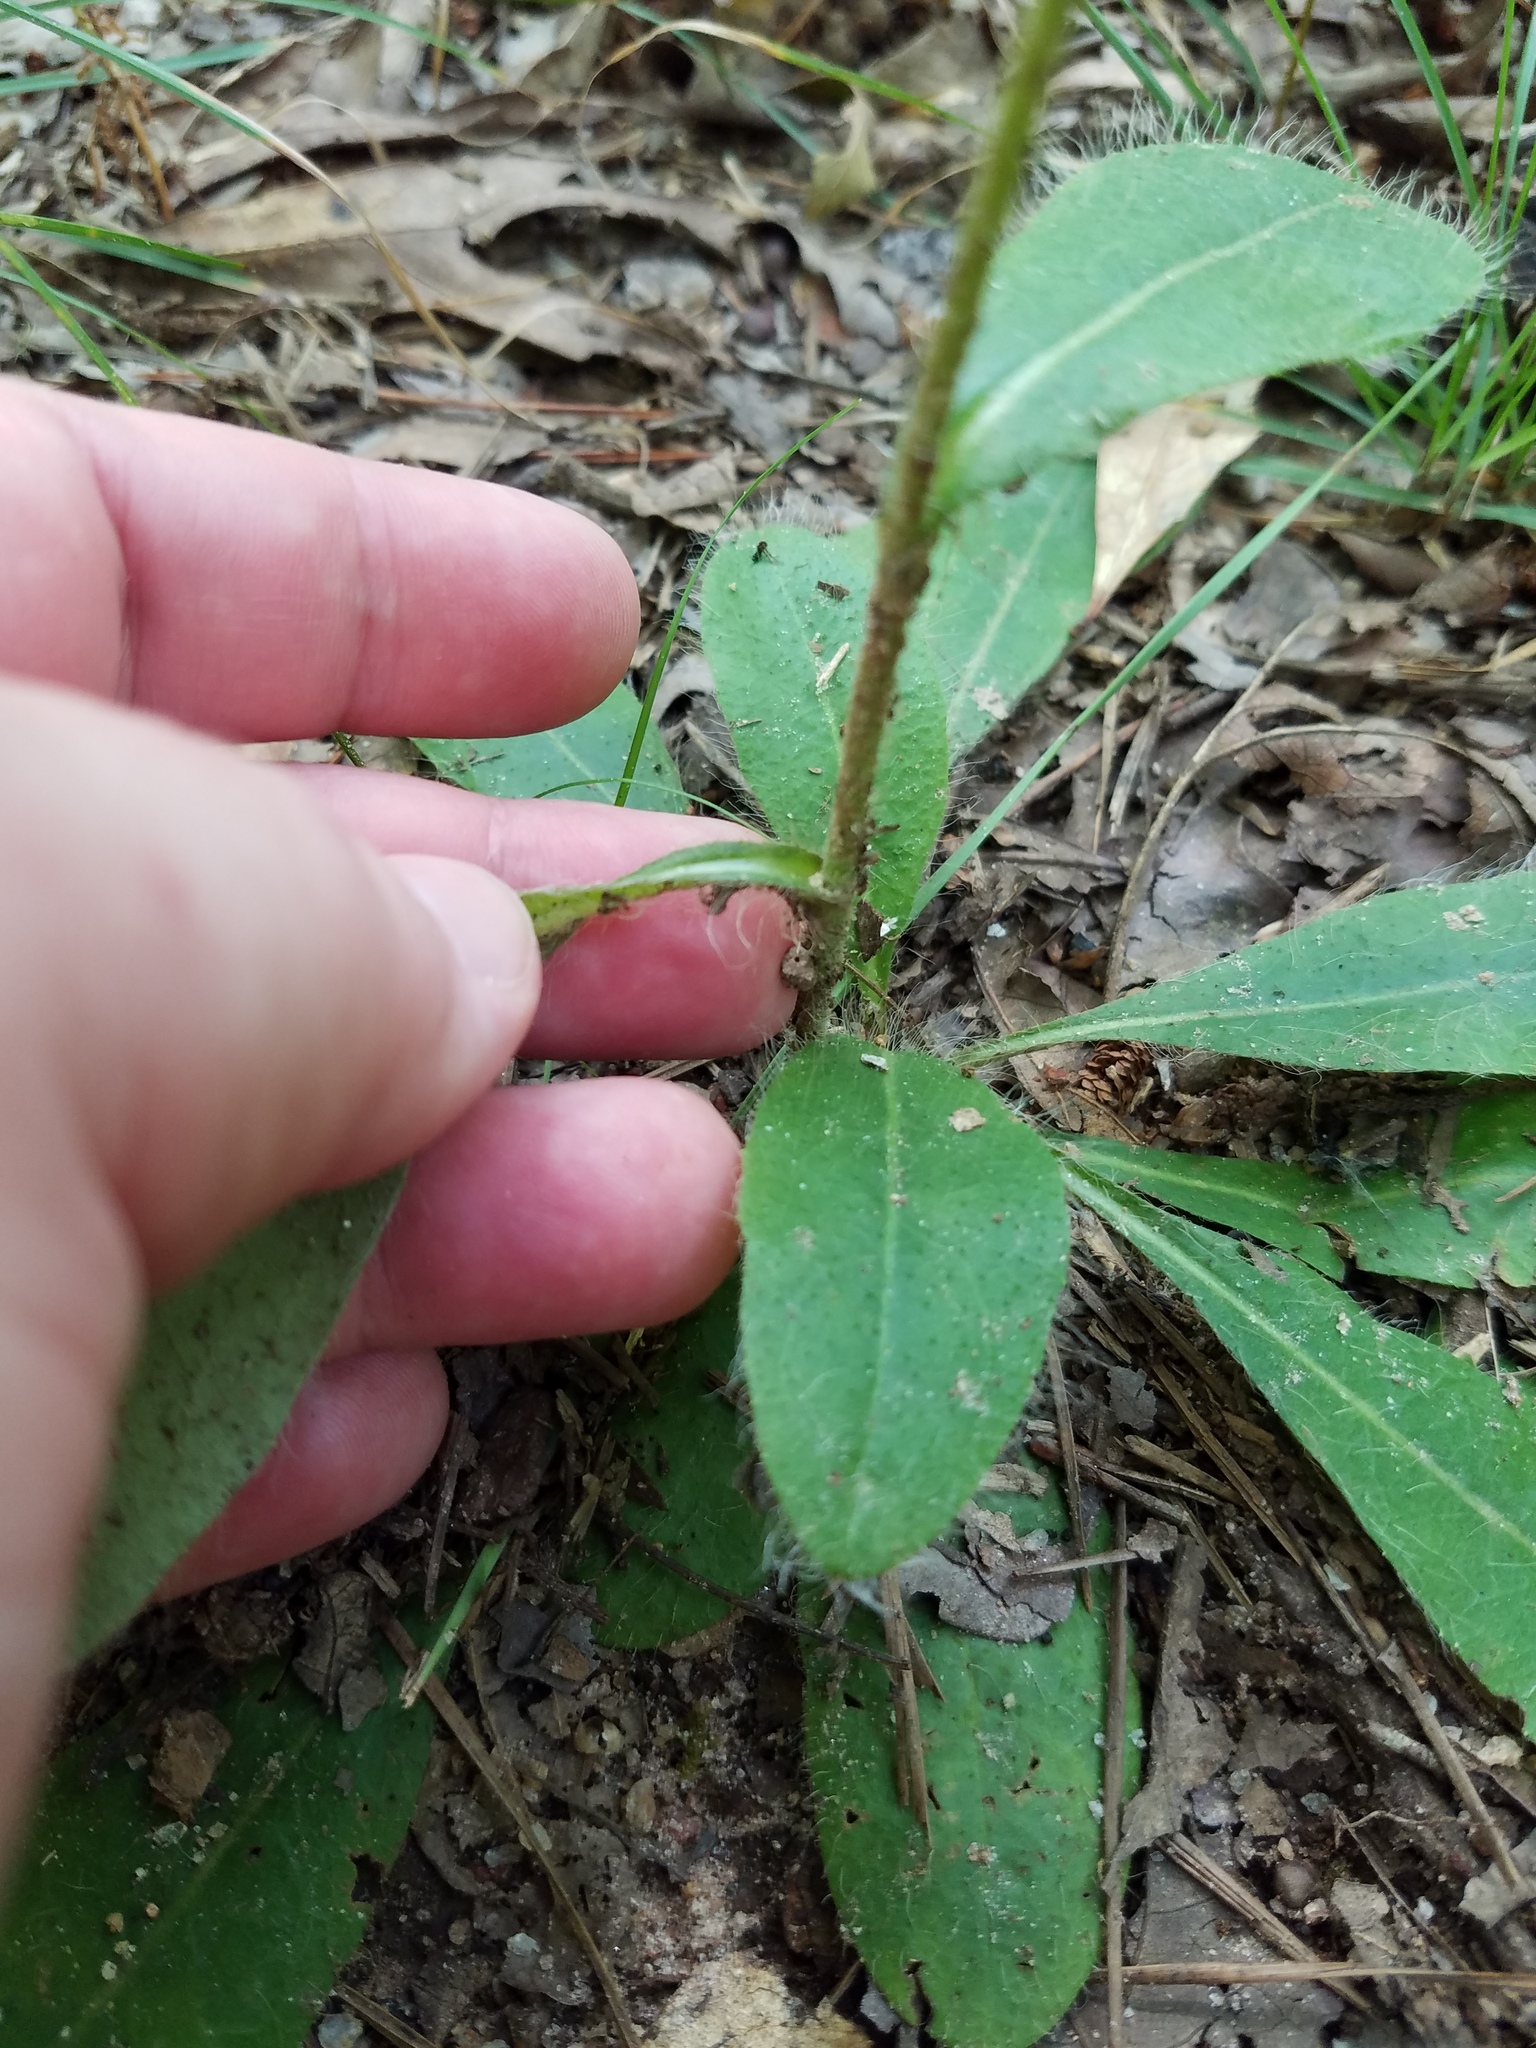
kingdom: Plantae
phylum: Tracheophyta
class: Magnoliopsida
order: Asterales
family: Asteraceae
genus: Hieracium
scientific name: Hieracium gronovii
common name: Beaked hawkweed
